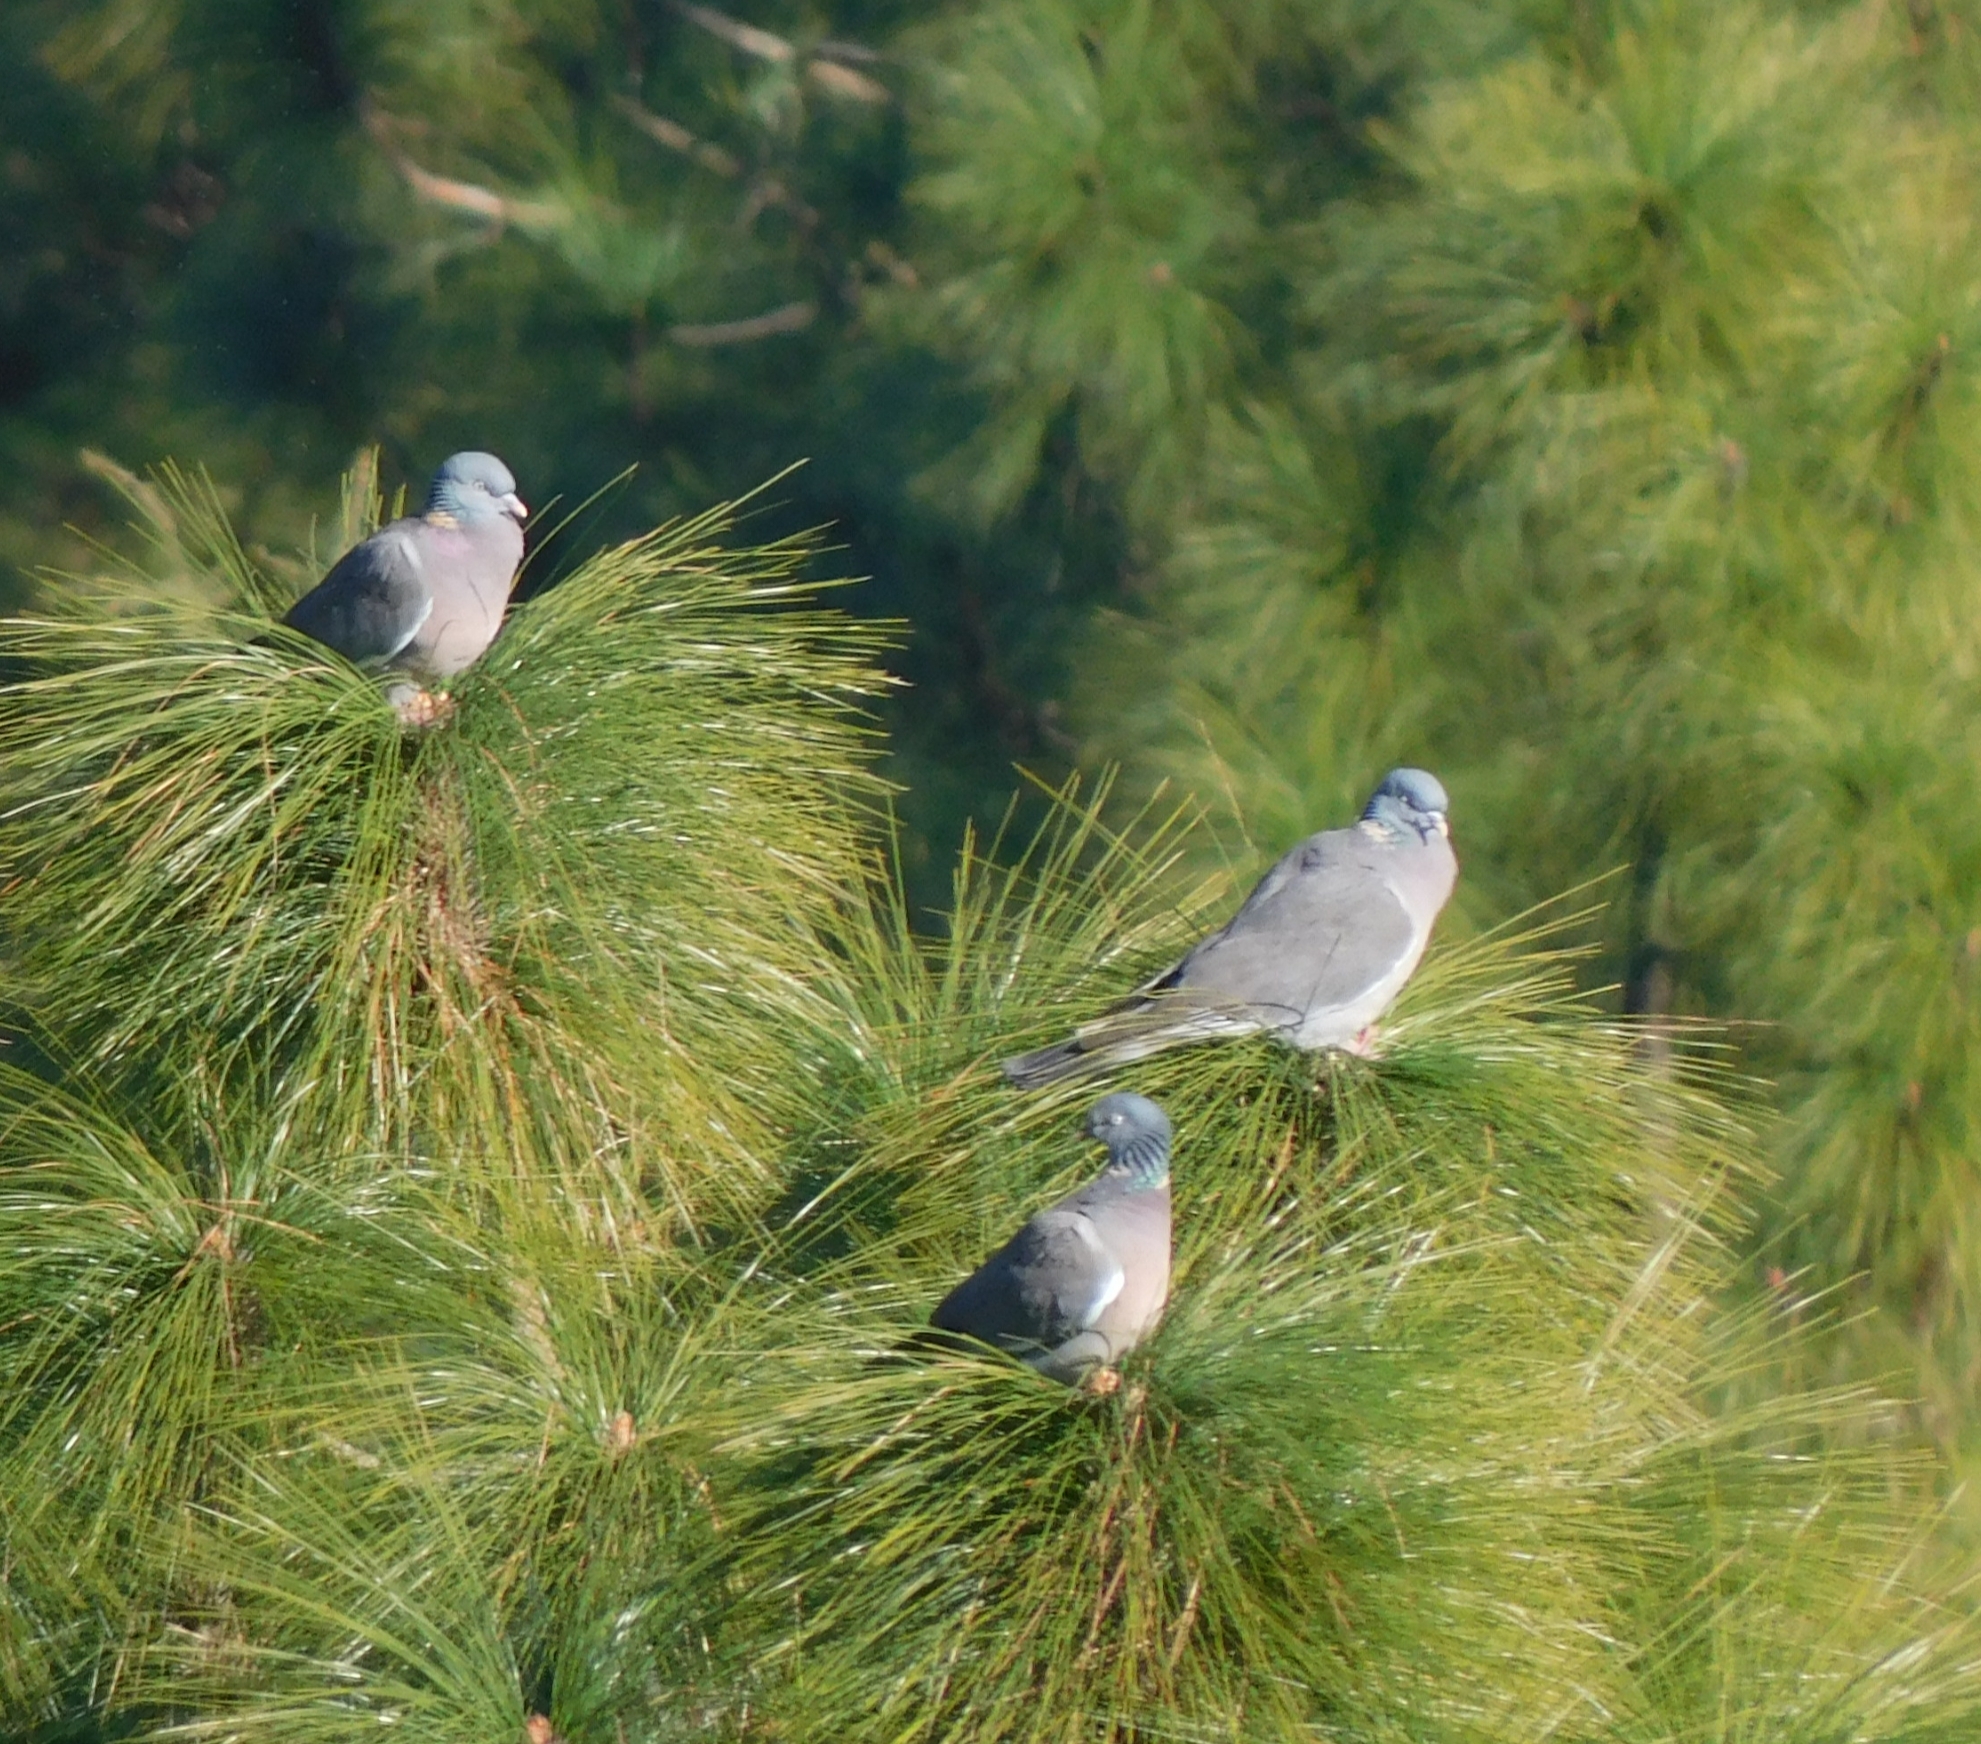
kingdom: Animalia
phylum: Chordata
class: Aves
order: Columbiformes
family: Columbidae
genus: Columba
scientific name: Columba palumbus
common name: Common wood pigeon
